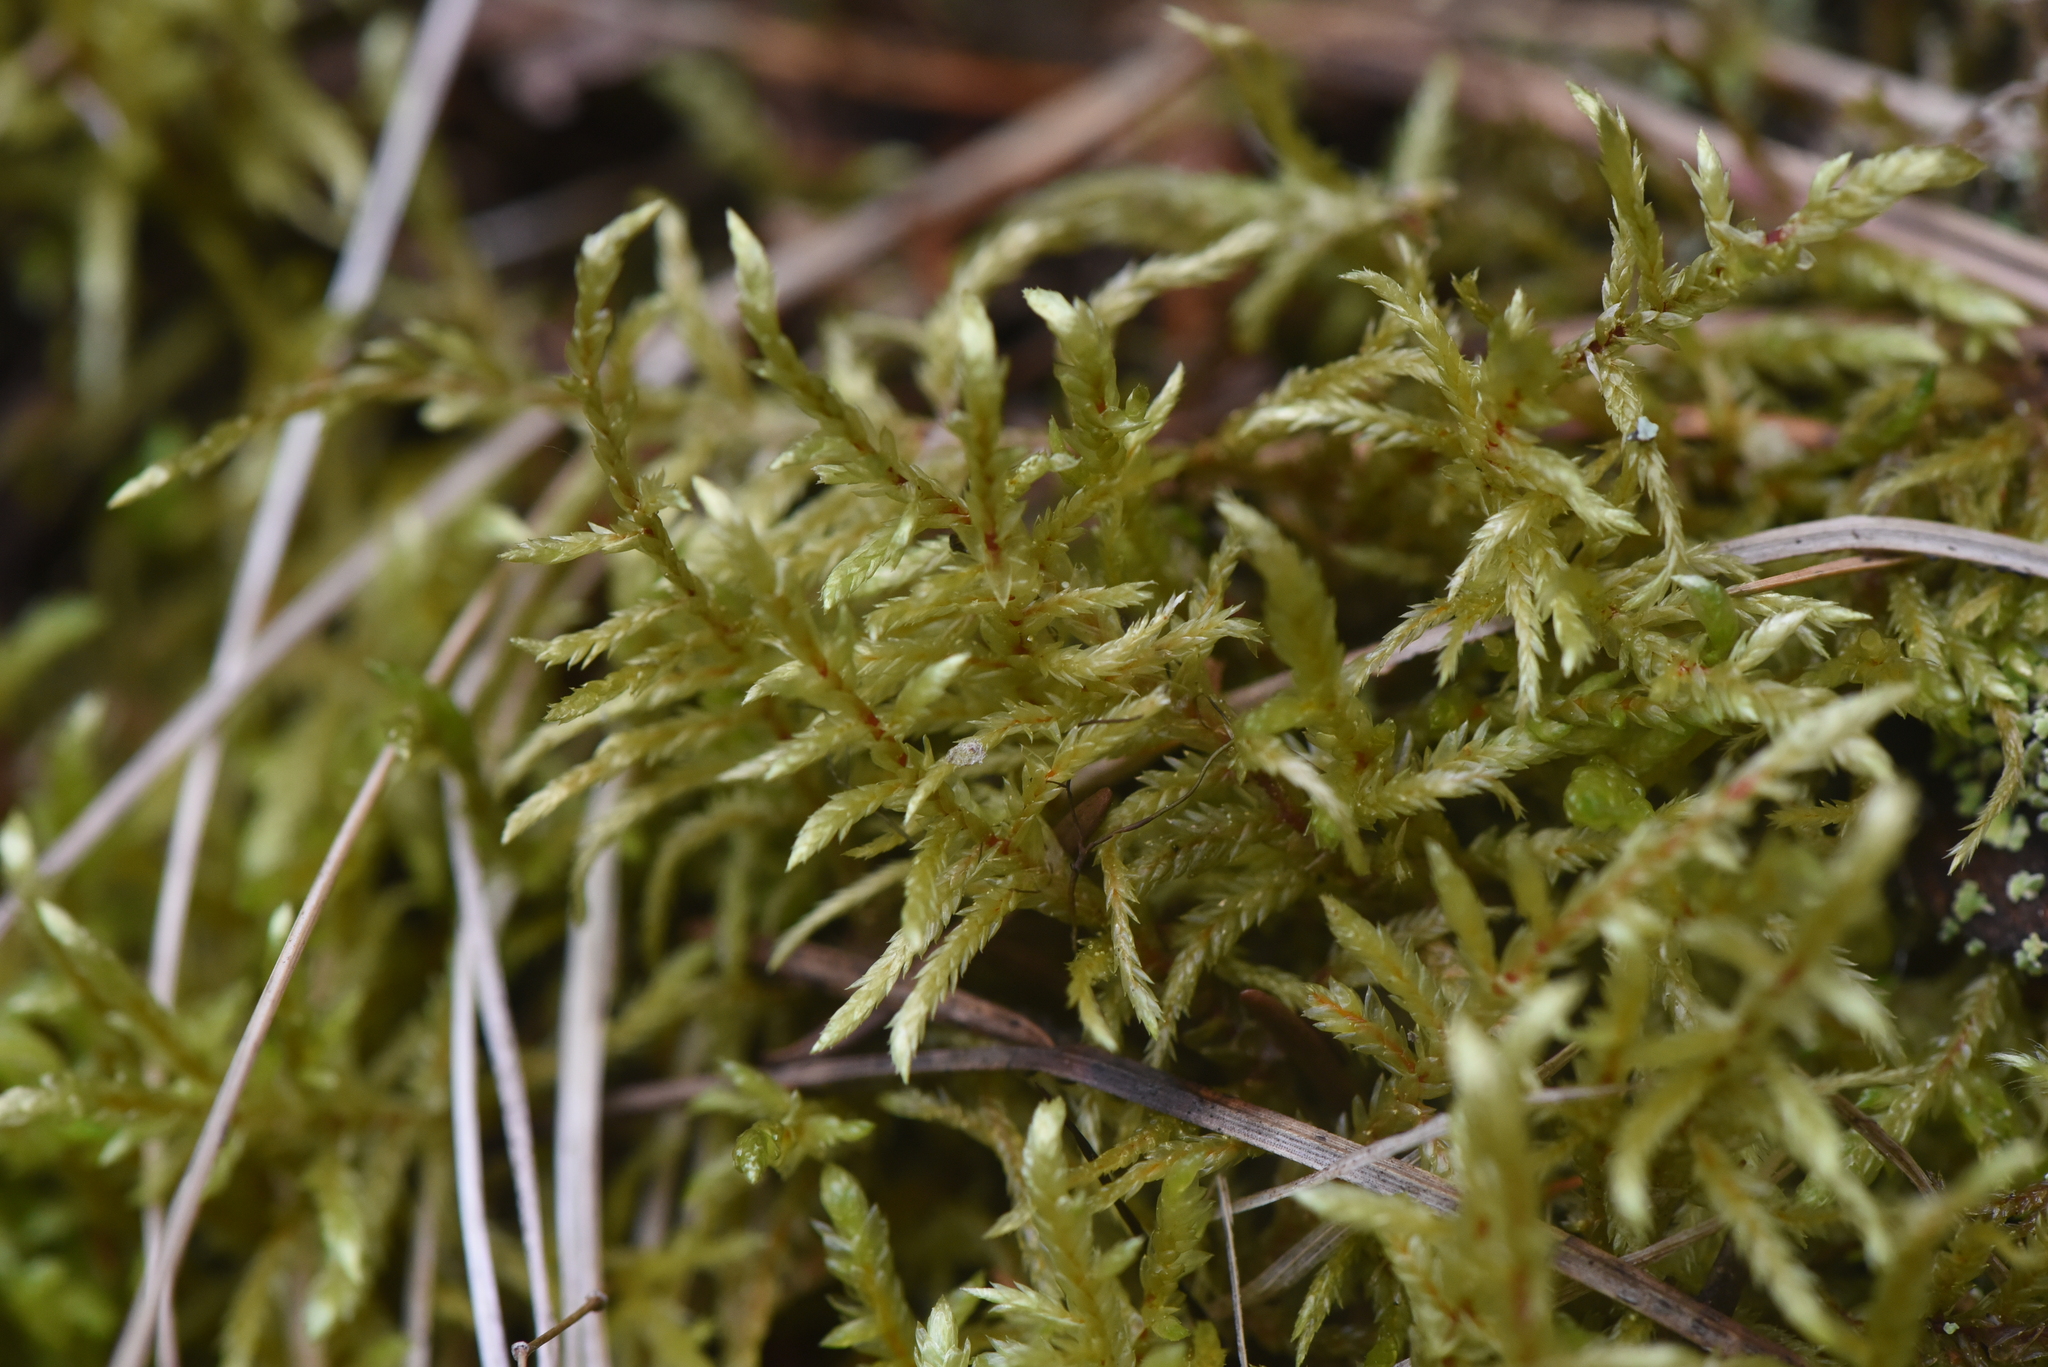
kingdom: Plantae
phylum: Bryophyta
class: Bryopsida
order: Hypnales
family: Hylocomiaceae
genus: Pleurozium
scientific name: Pleurozium schreberi
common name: Red-stemmed feather moss
